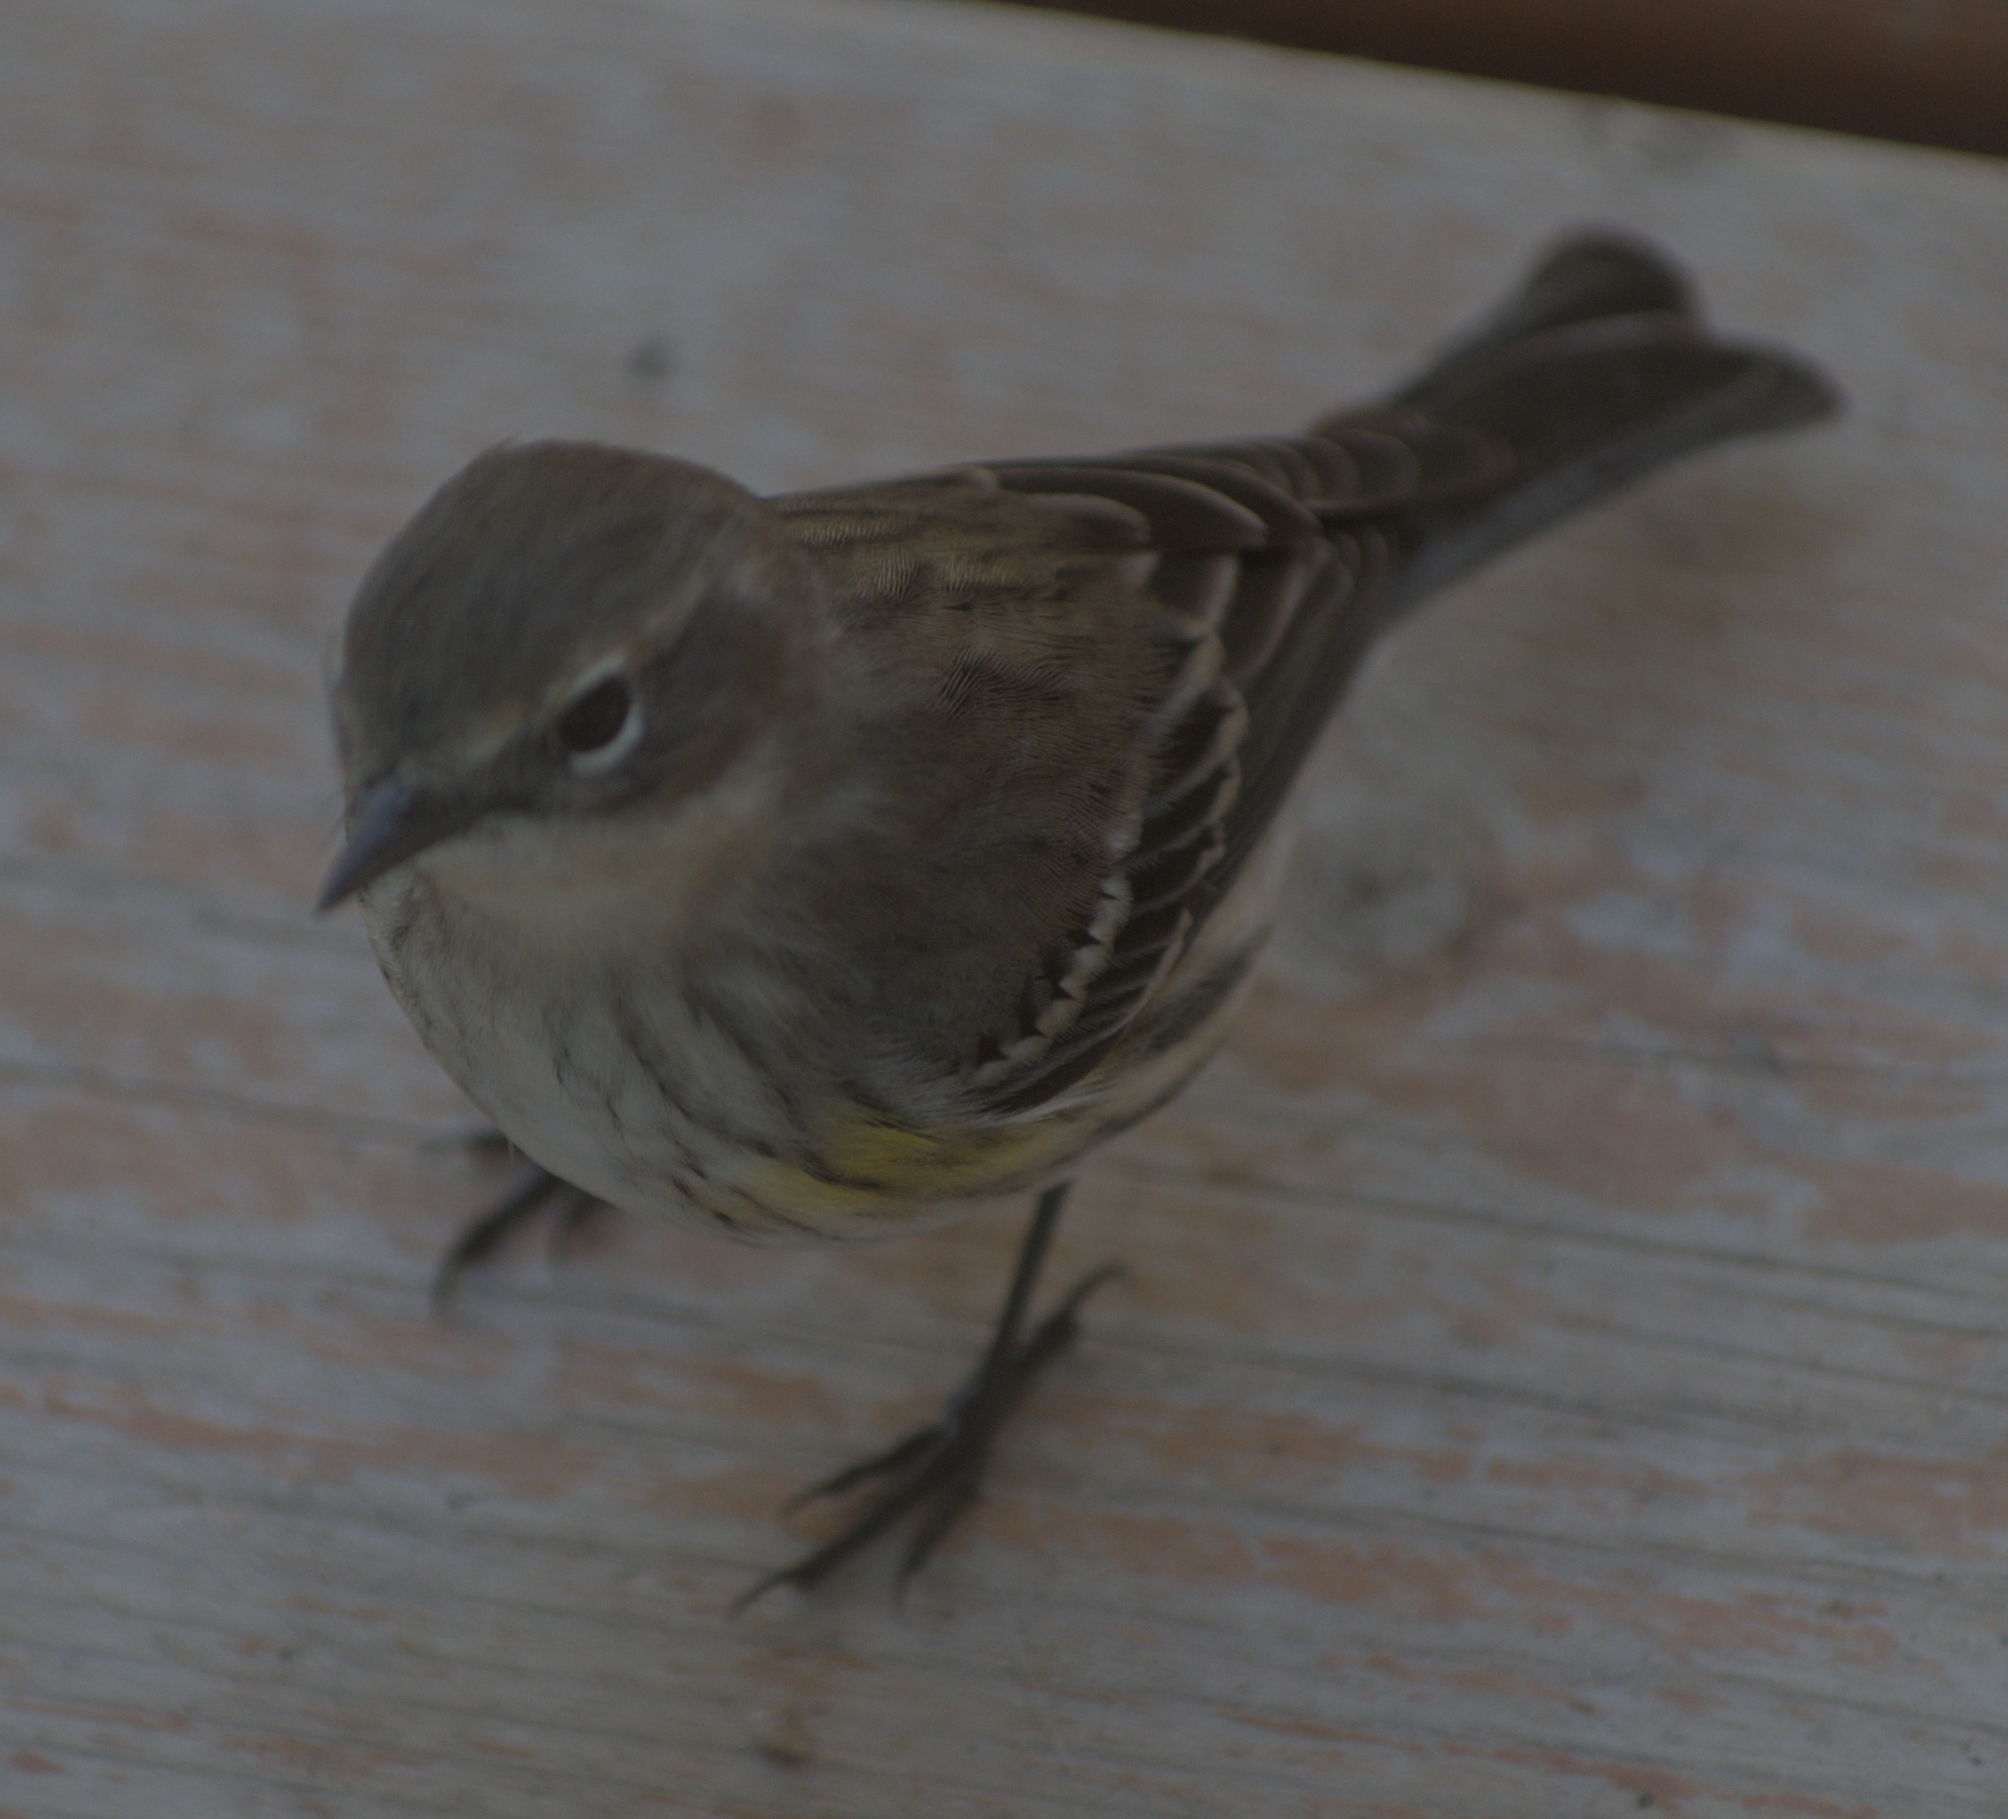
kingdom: Animalia
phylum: Chordata
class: Aves
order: Passeriformes
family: Parulidae
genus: Setophaga
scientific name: Setophaga coronata
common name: Myrtle warbler
